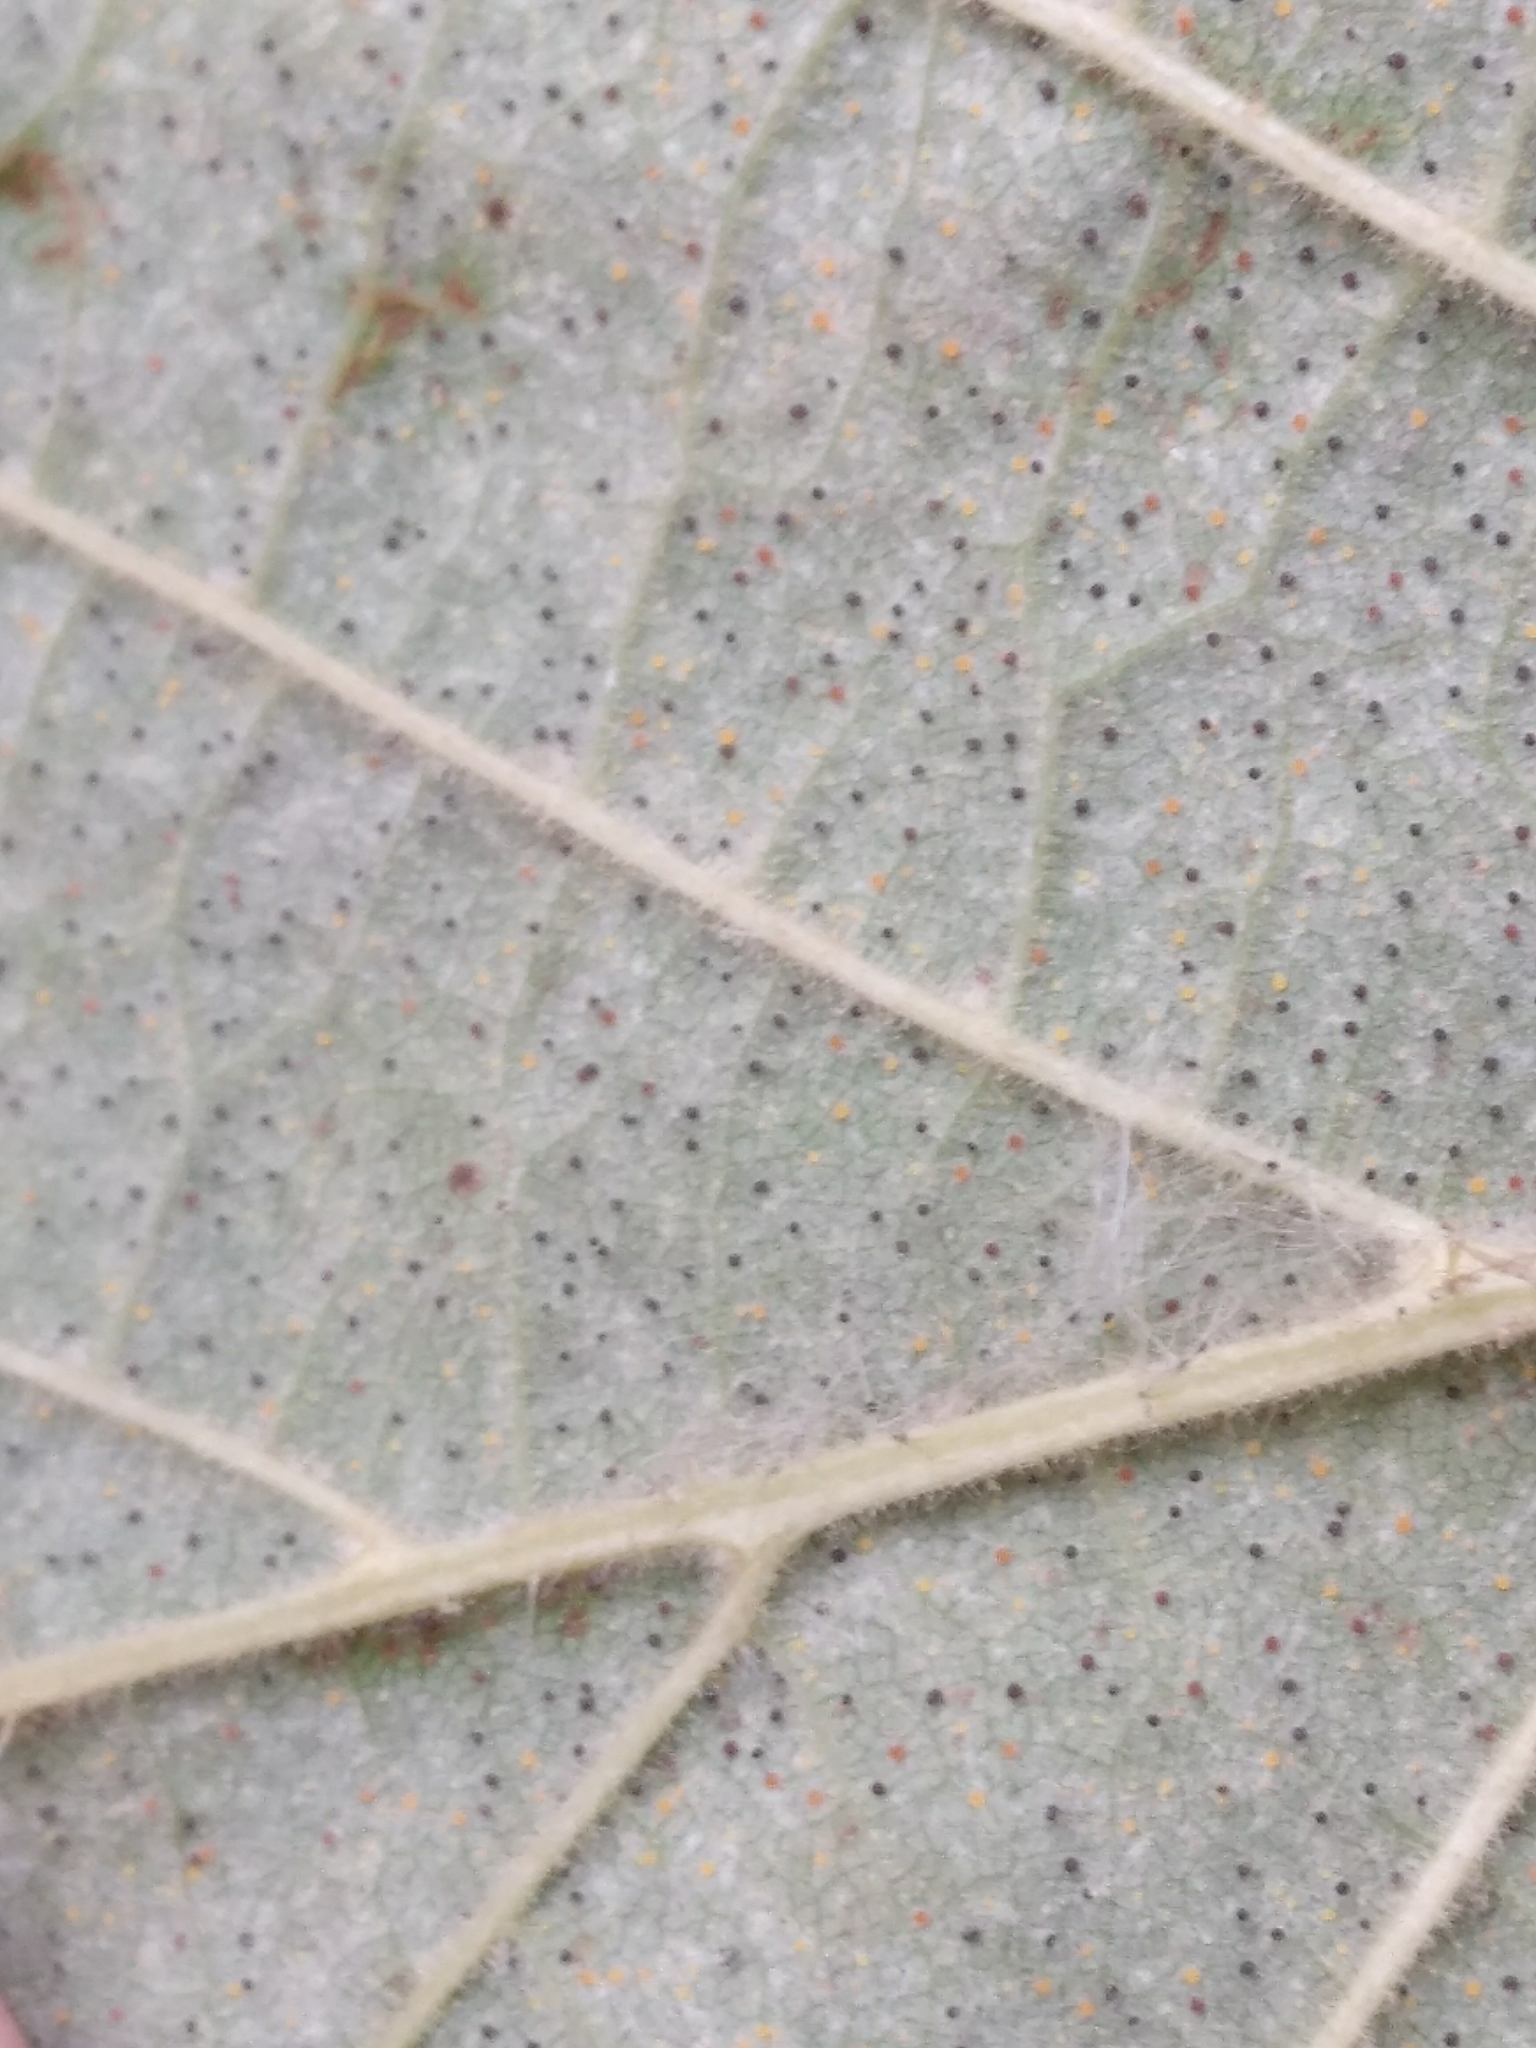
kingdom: Fungi
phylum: Ascomycota
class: Leotiomycetes
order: Helotiales
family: Erysiphaceae
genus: Phyllactinia
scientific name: Phyllactinia guttata
